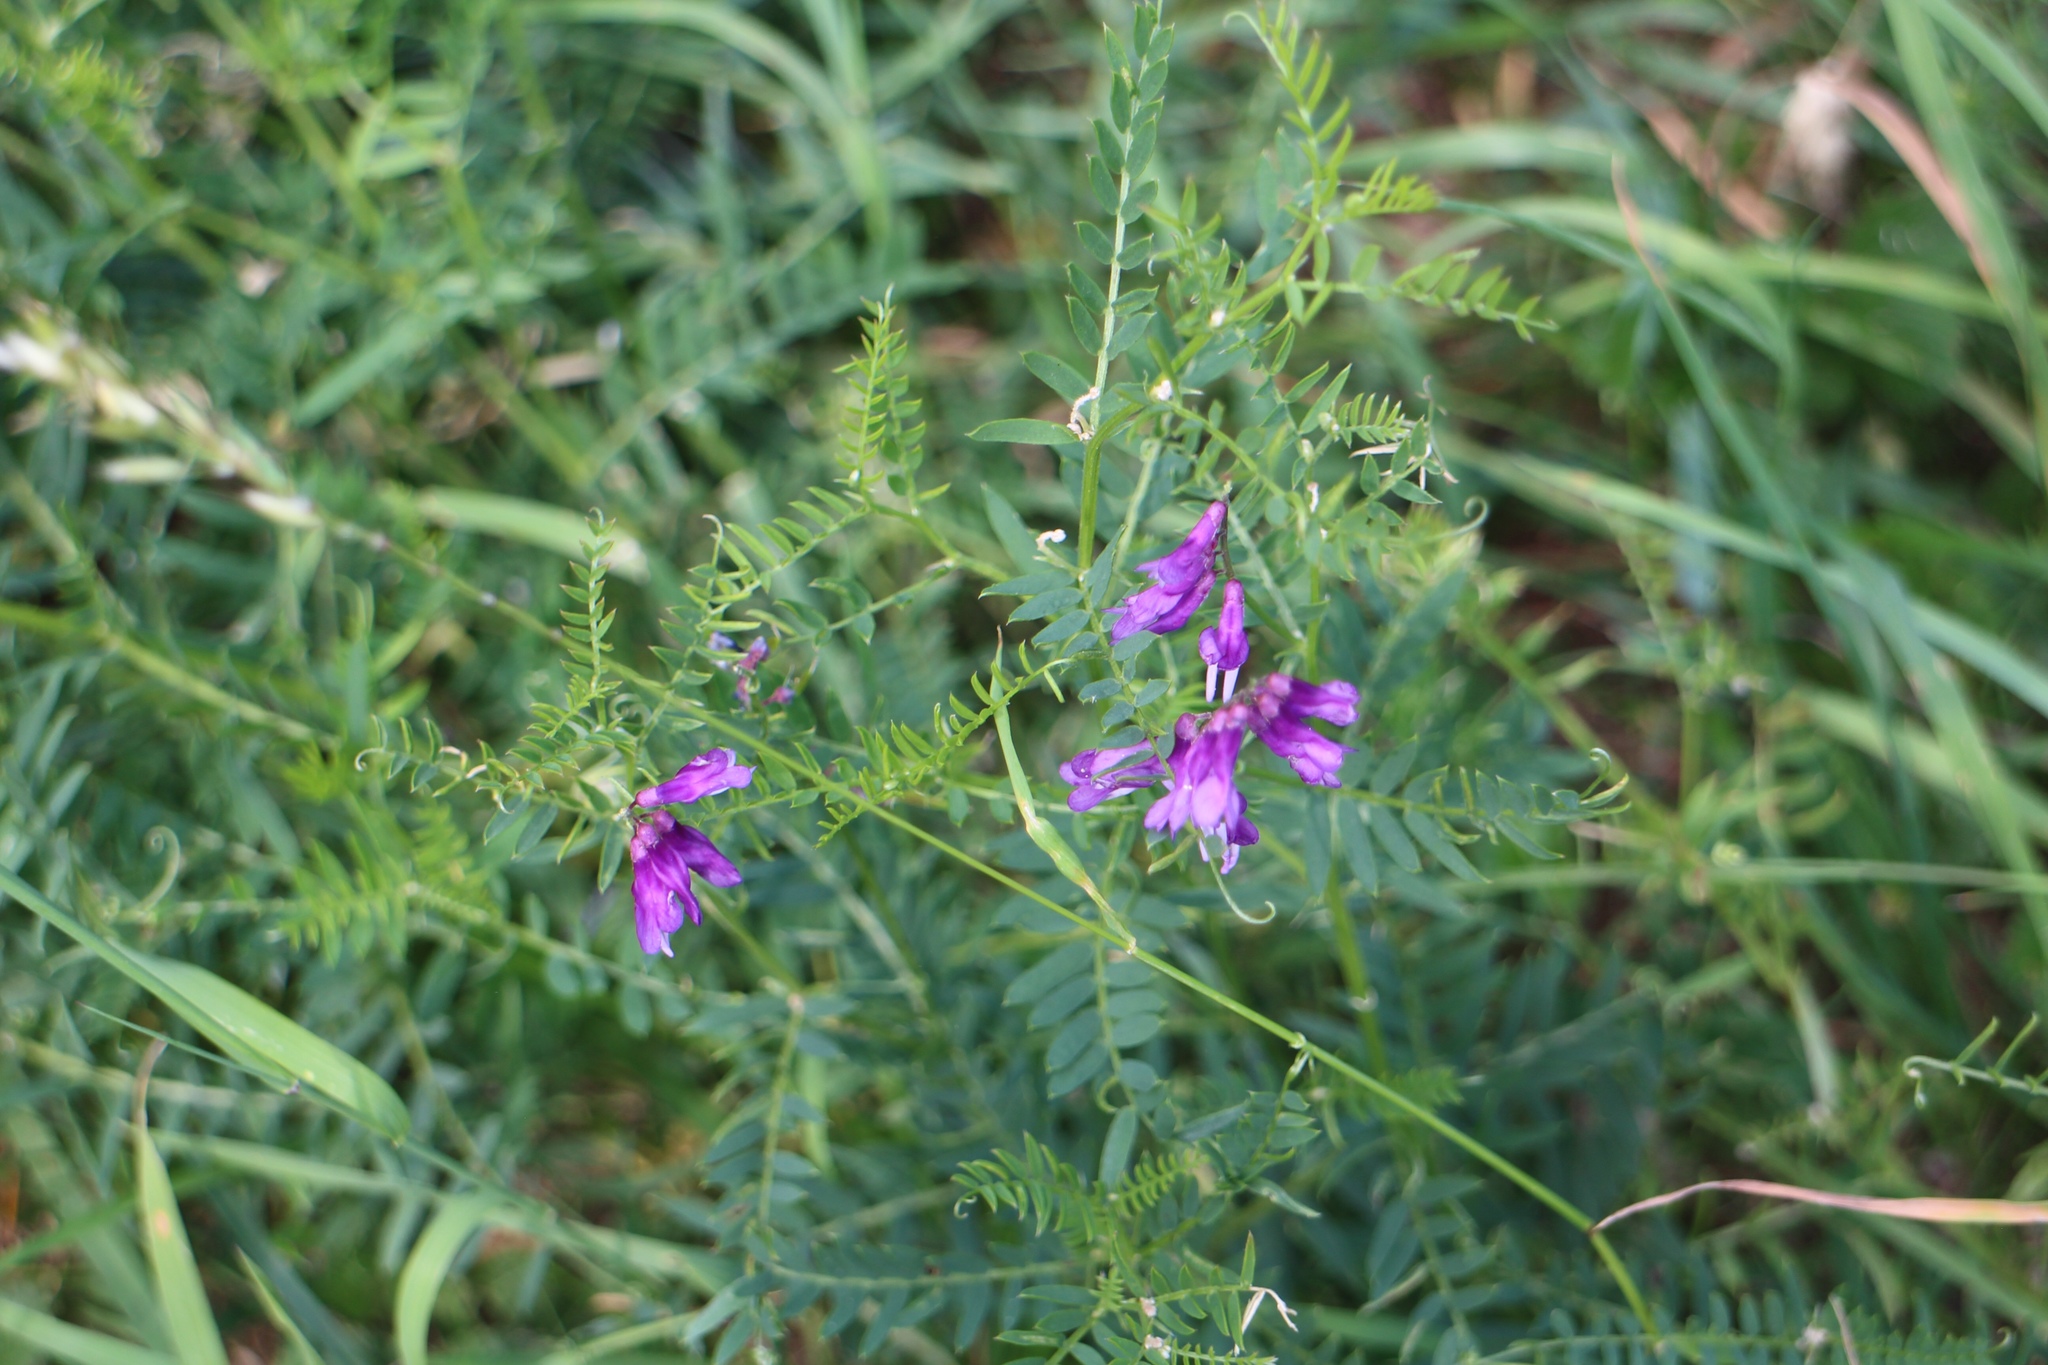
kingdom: Plantae
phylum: Tracheophyta
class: Magnoliopsida
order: Fabales
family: Fabaceae
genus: Vicia
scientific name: Vicia cracca
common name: Bird vetch
